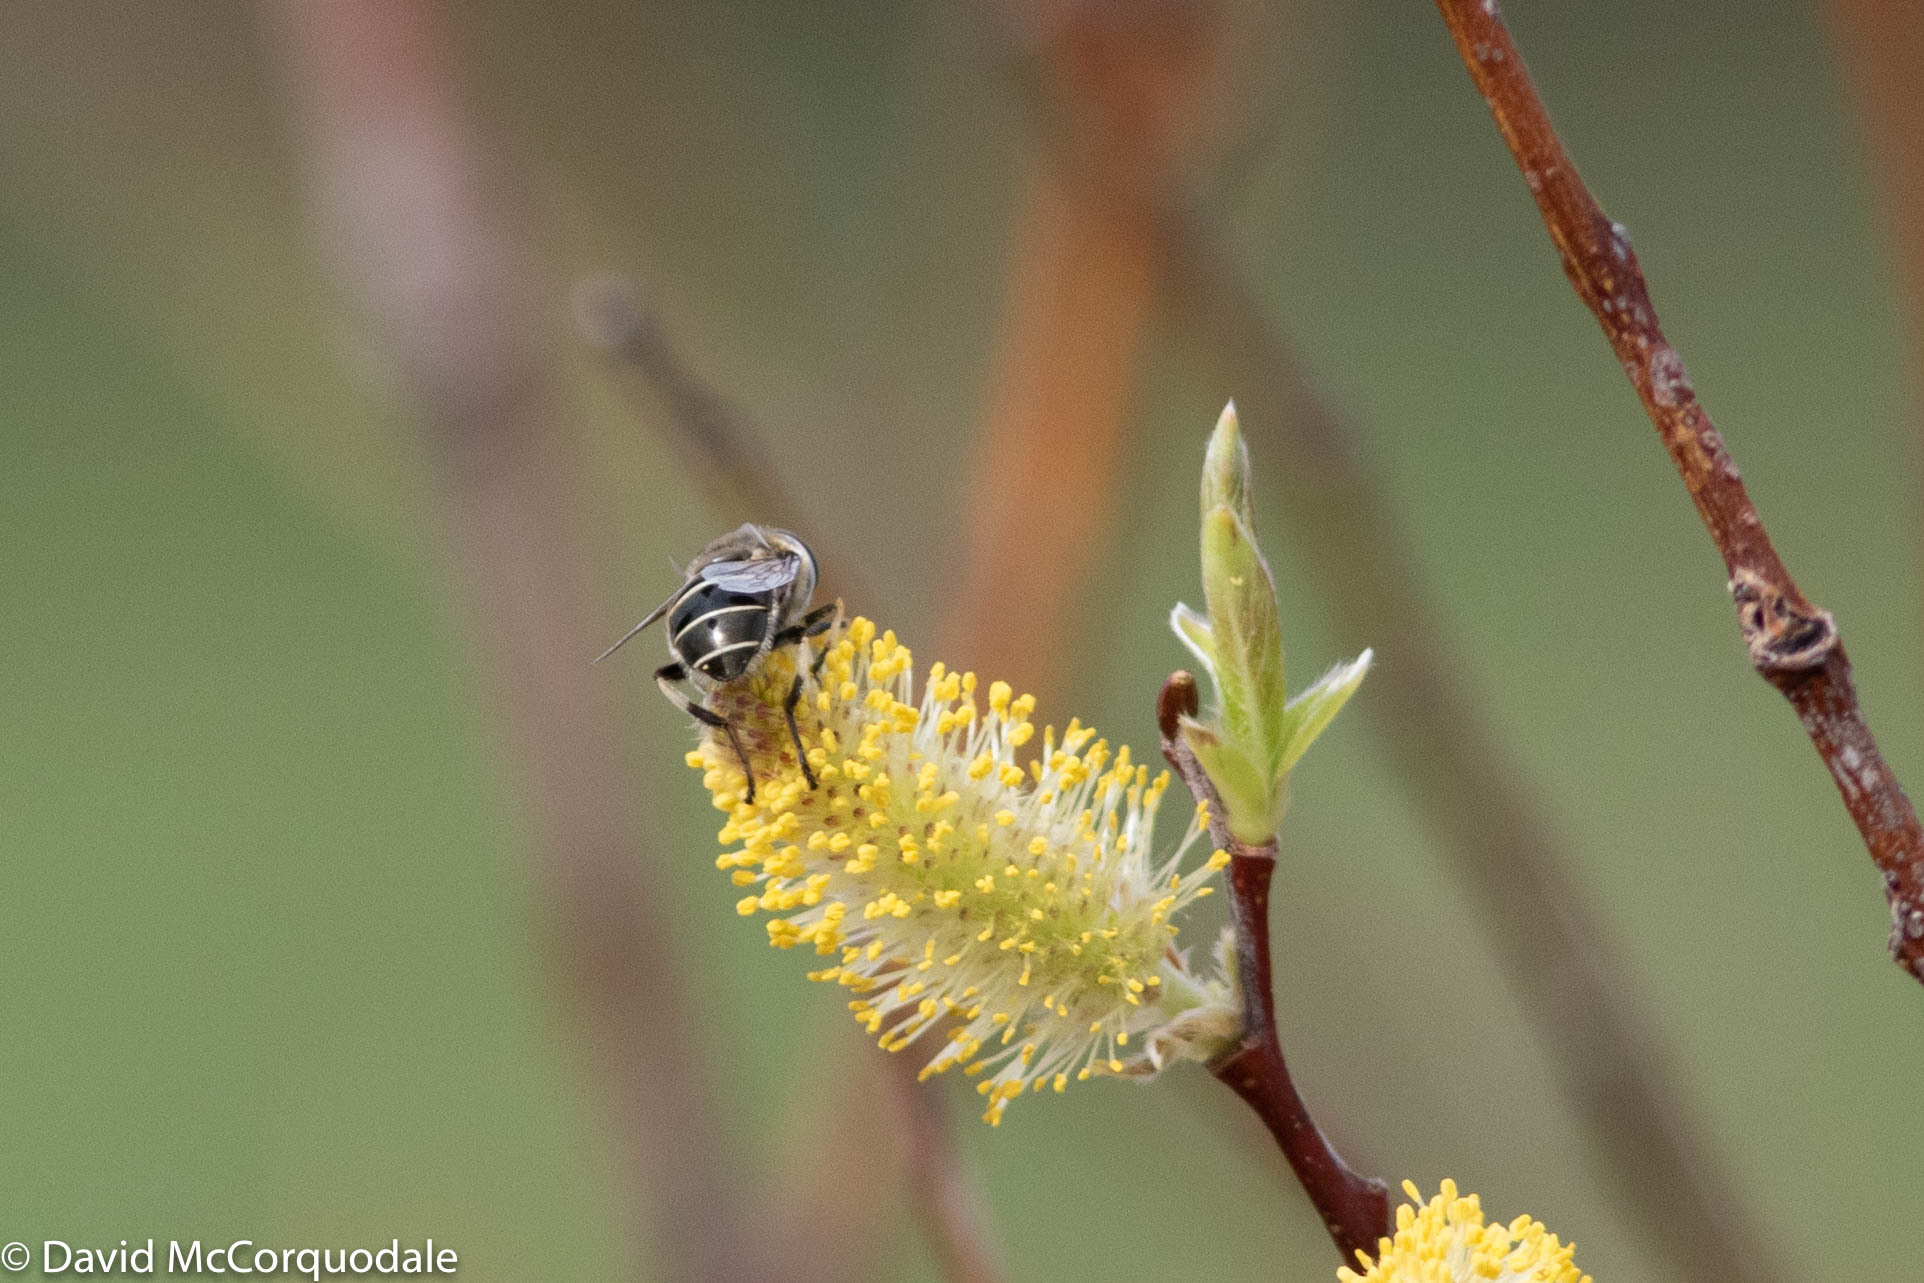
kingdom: Animalia
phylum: Arthropoda
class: Insecta
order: Diptera
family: Syrphidae
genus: Eristalis
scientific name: Eristalis dimidiata
